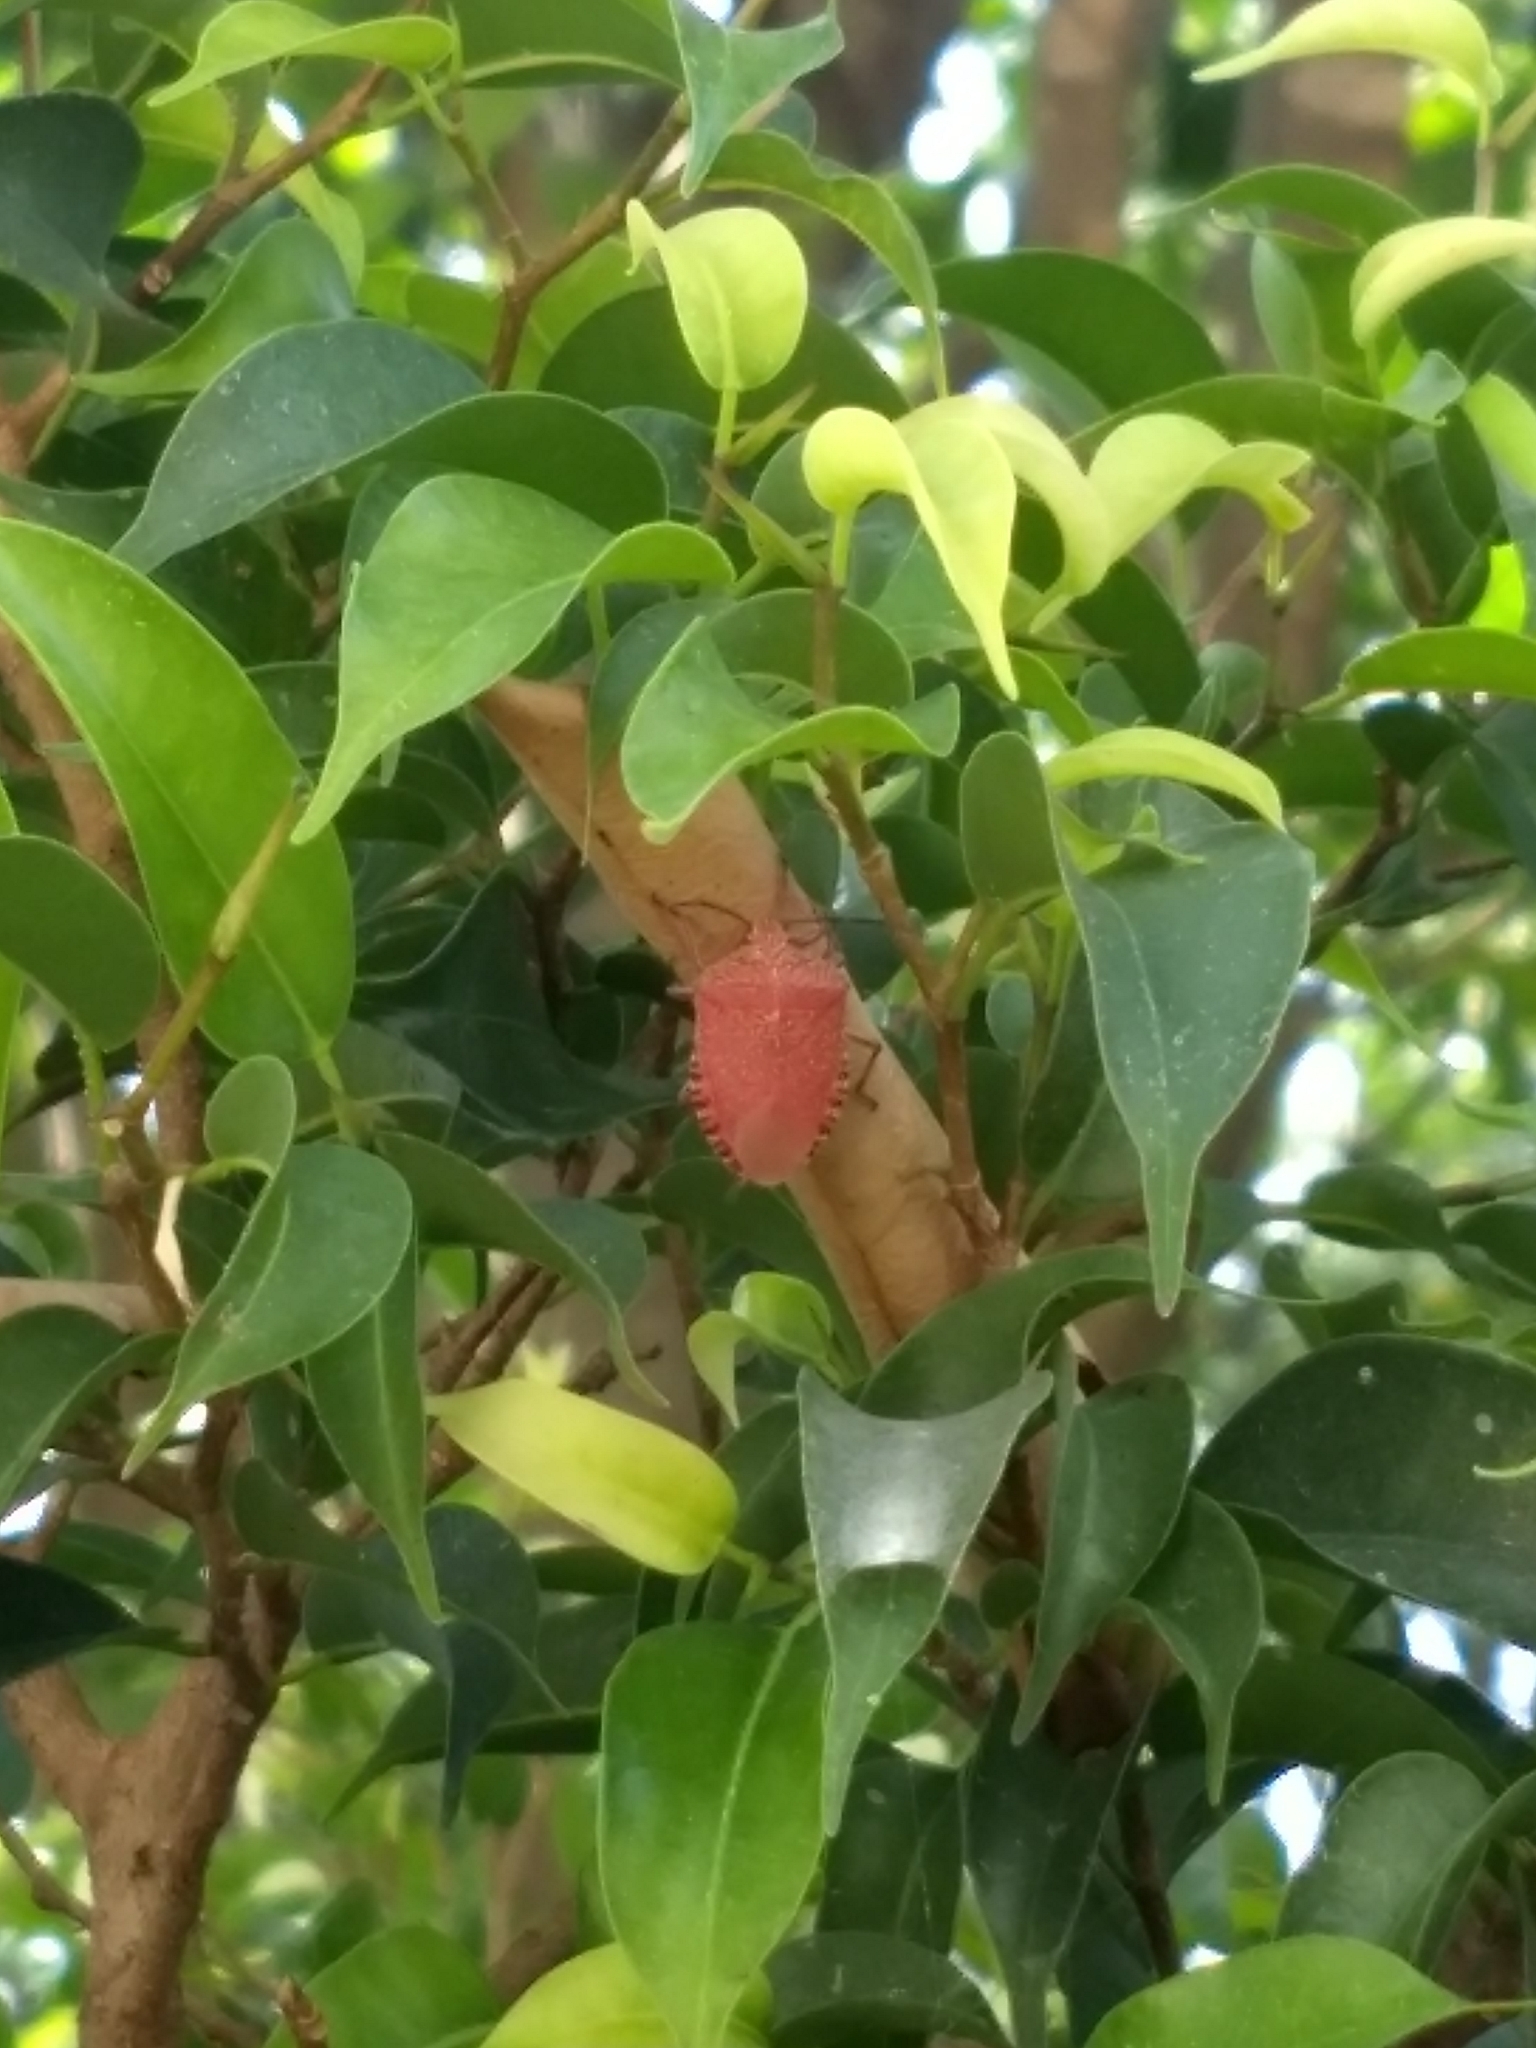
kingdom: Animalia
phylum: Arthropoda
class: Insecta
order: Hemiptera
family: Pentatomidae
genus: Pellaea
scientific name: Pellaea stictica
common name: Stink bug
